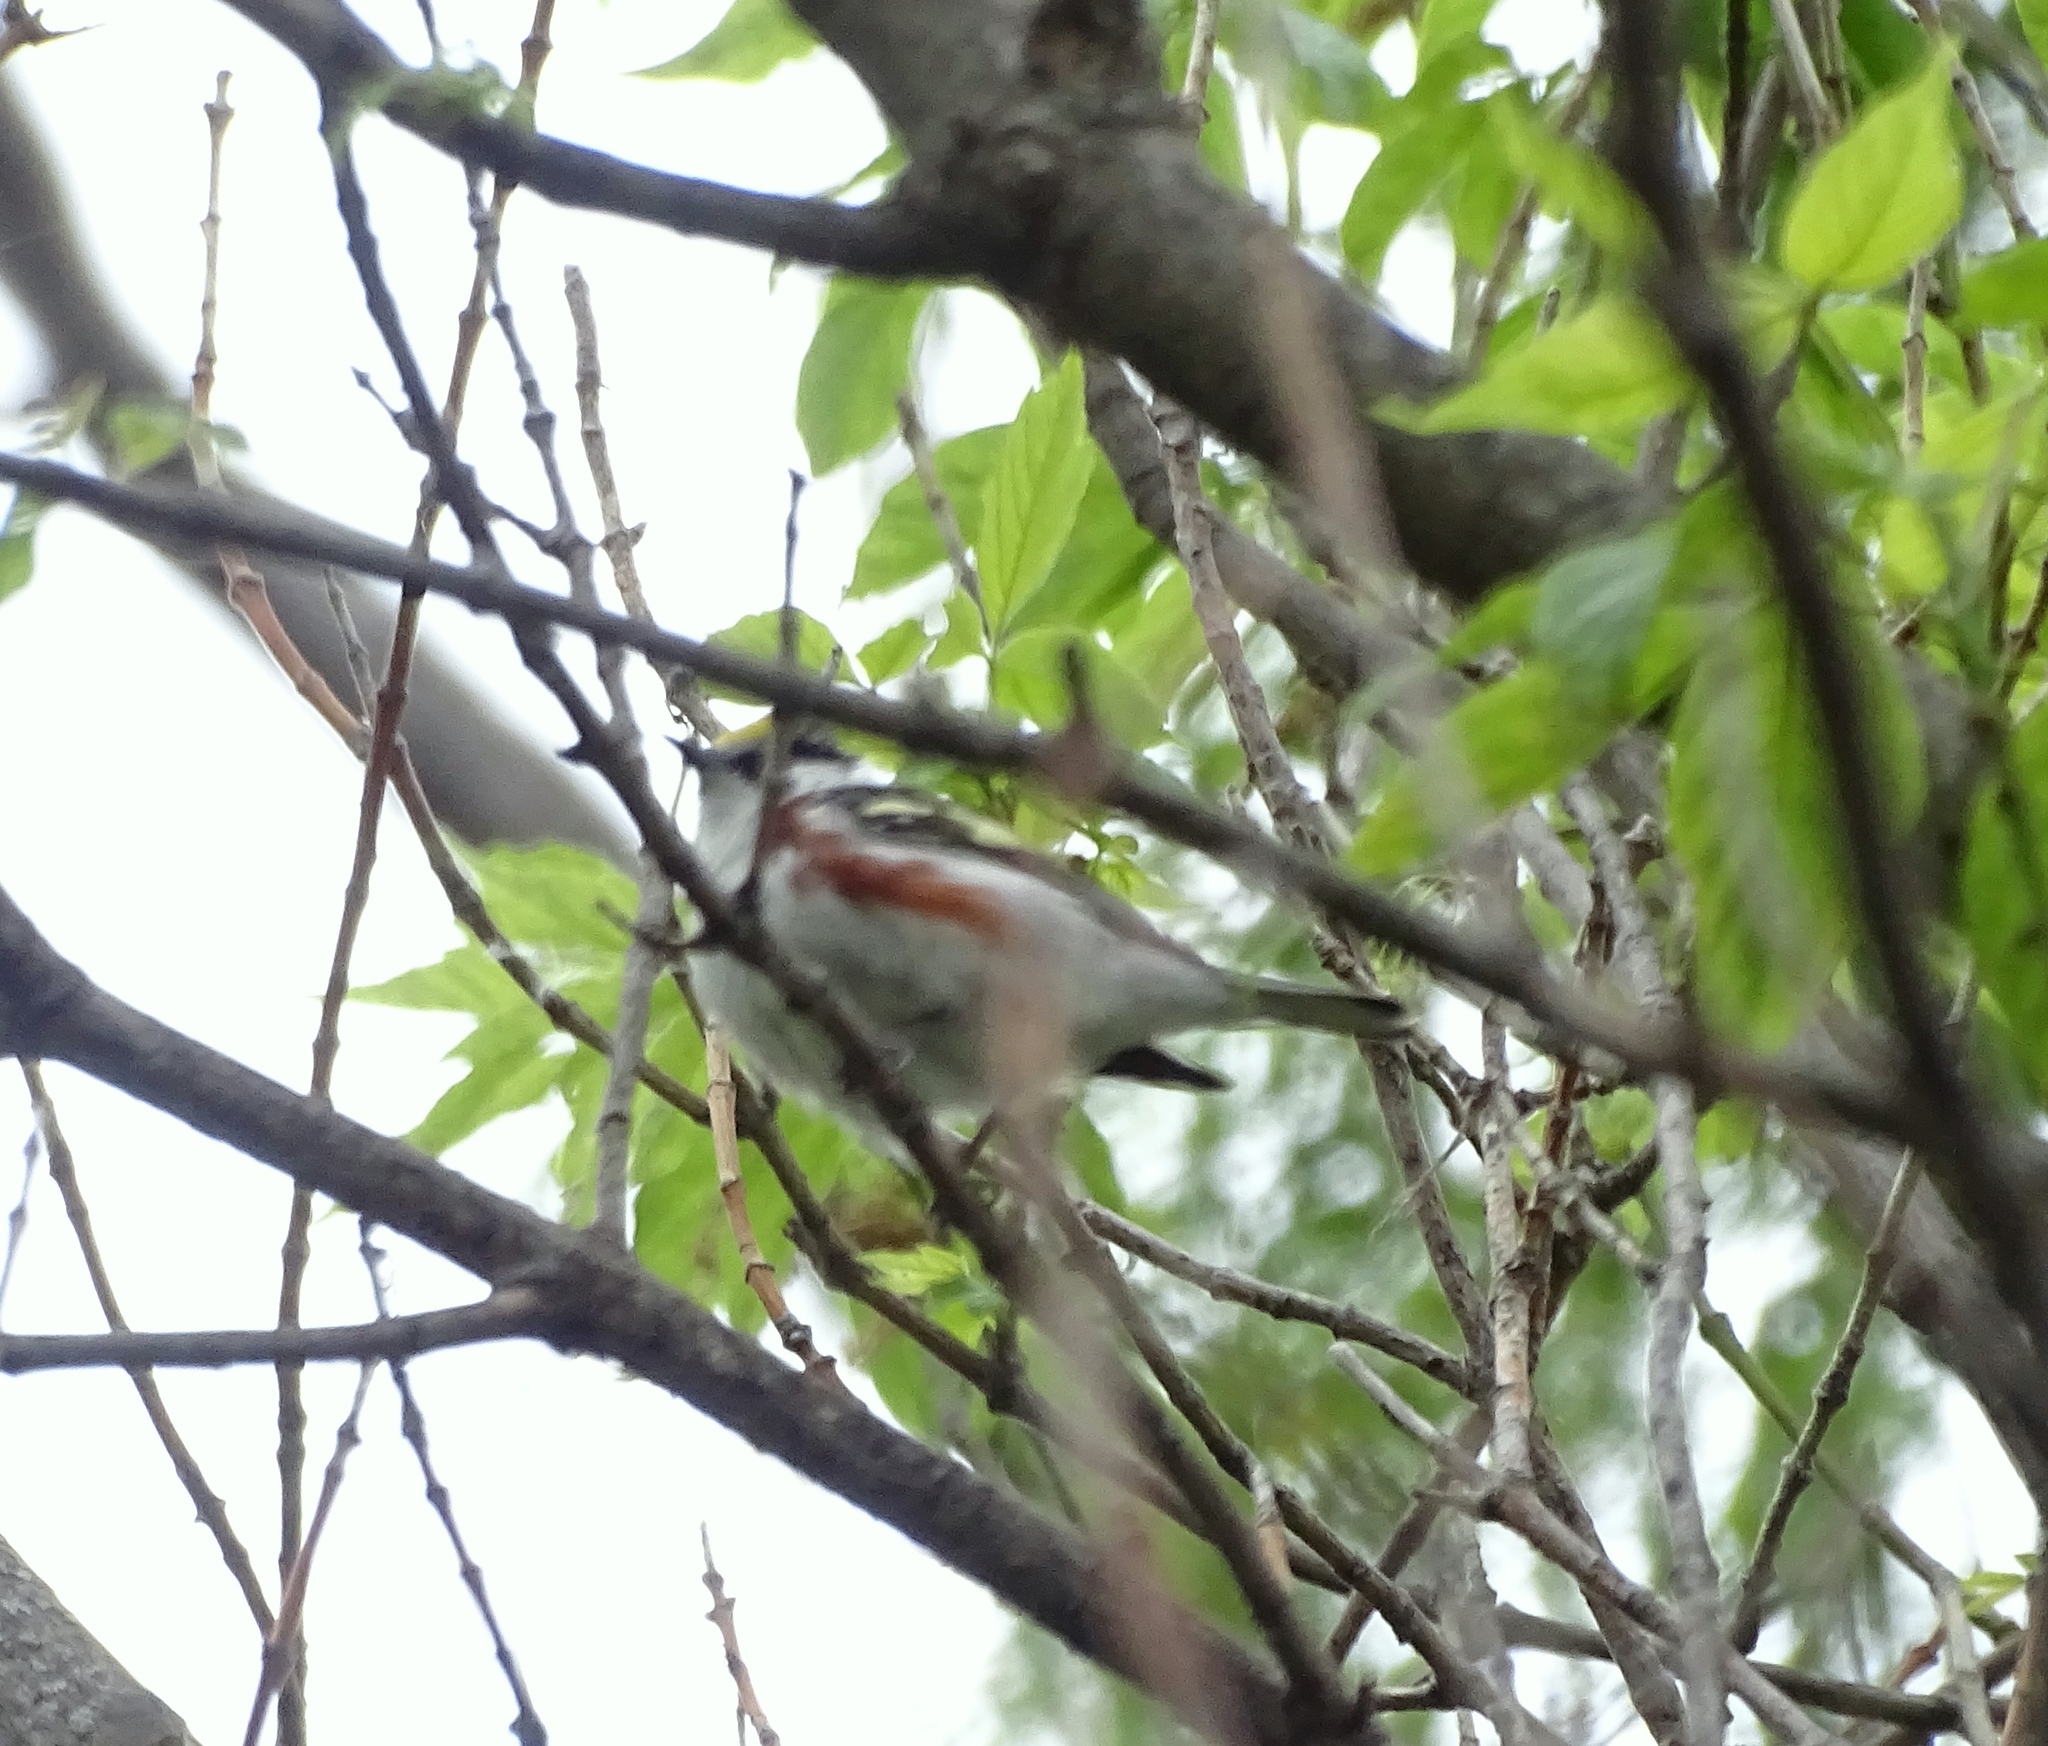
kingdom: Animalia
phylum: Chordata
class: Aves
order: Passeriformes
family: Parulidae
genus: Setophaga
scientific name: Setophaga pensylvanica
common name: Chestnut-sided warbler
